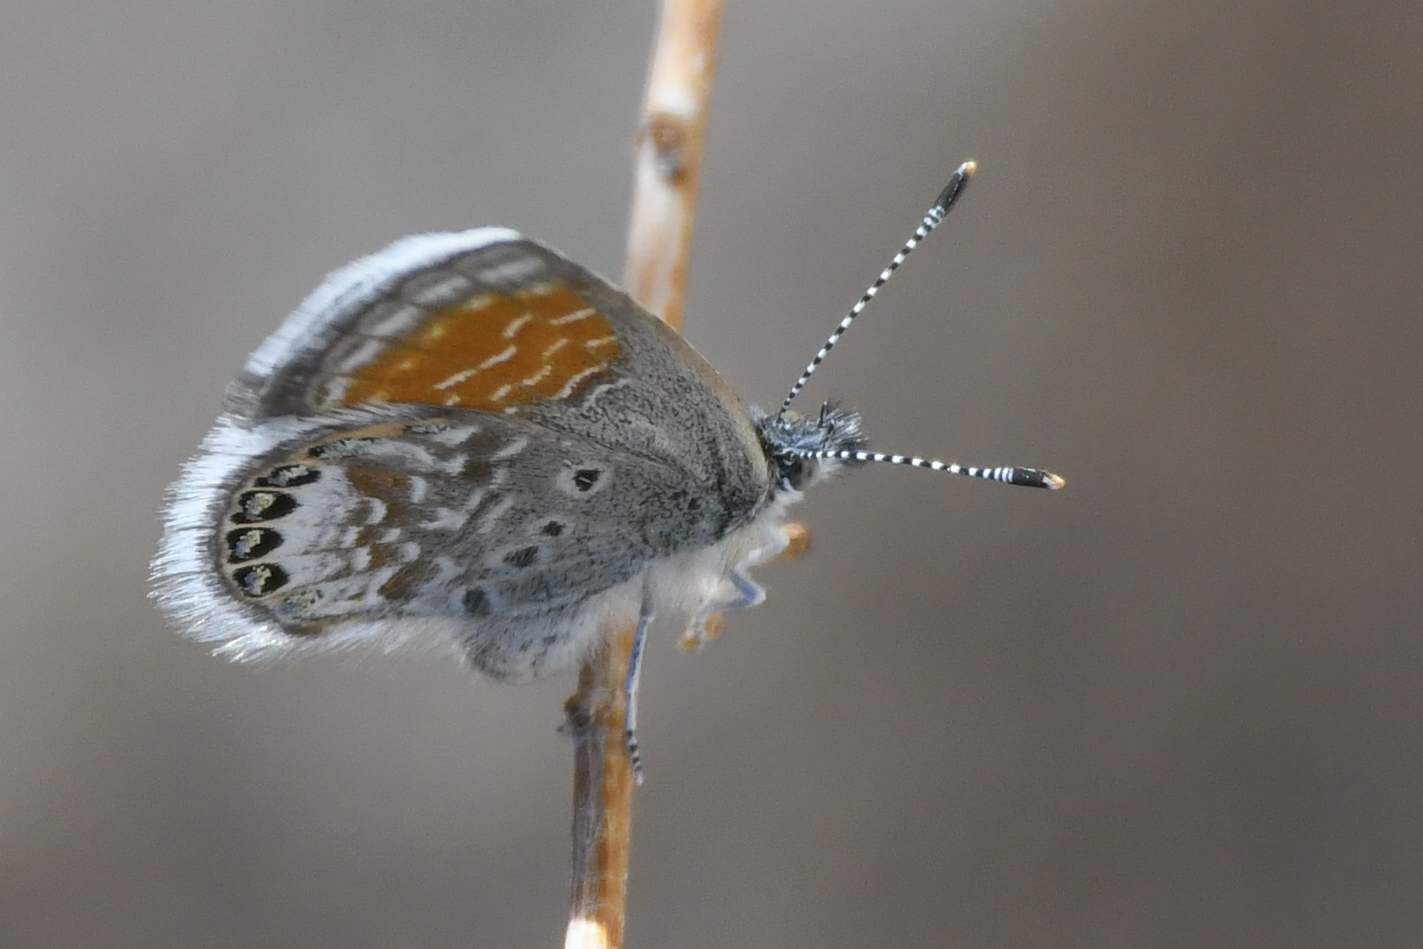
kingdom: Animalia
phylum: Arthropoda
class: Insecta
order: Lepidoptera
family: Lycaenidae
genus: Brephidium
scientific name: Brephidium exilis
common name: Pygmy blue
